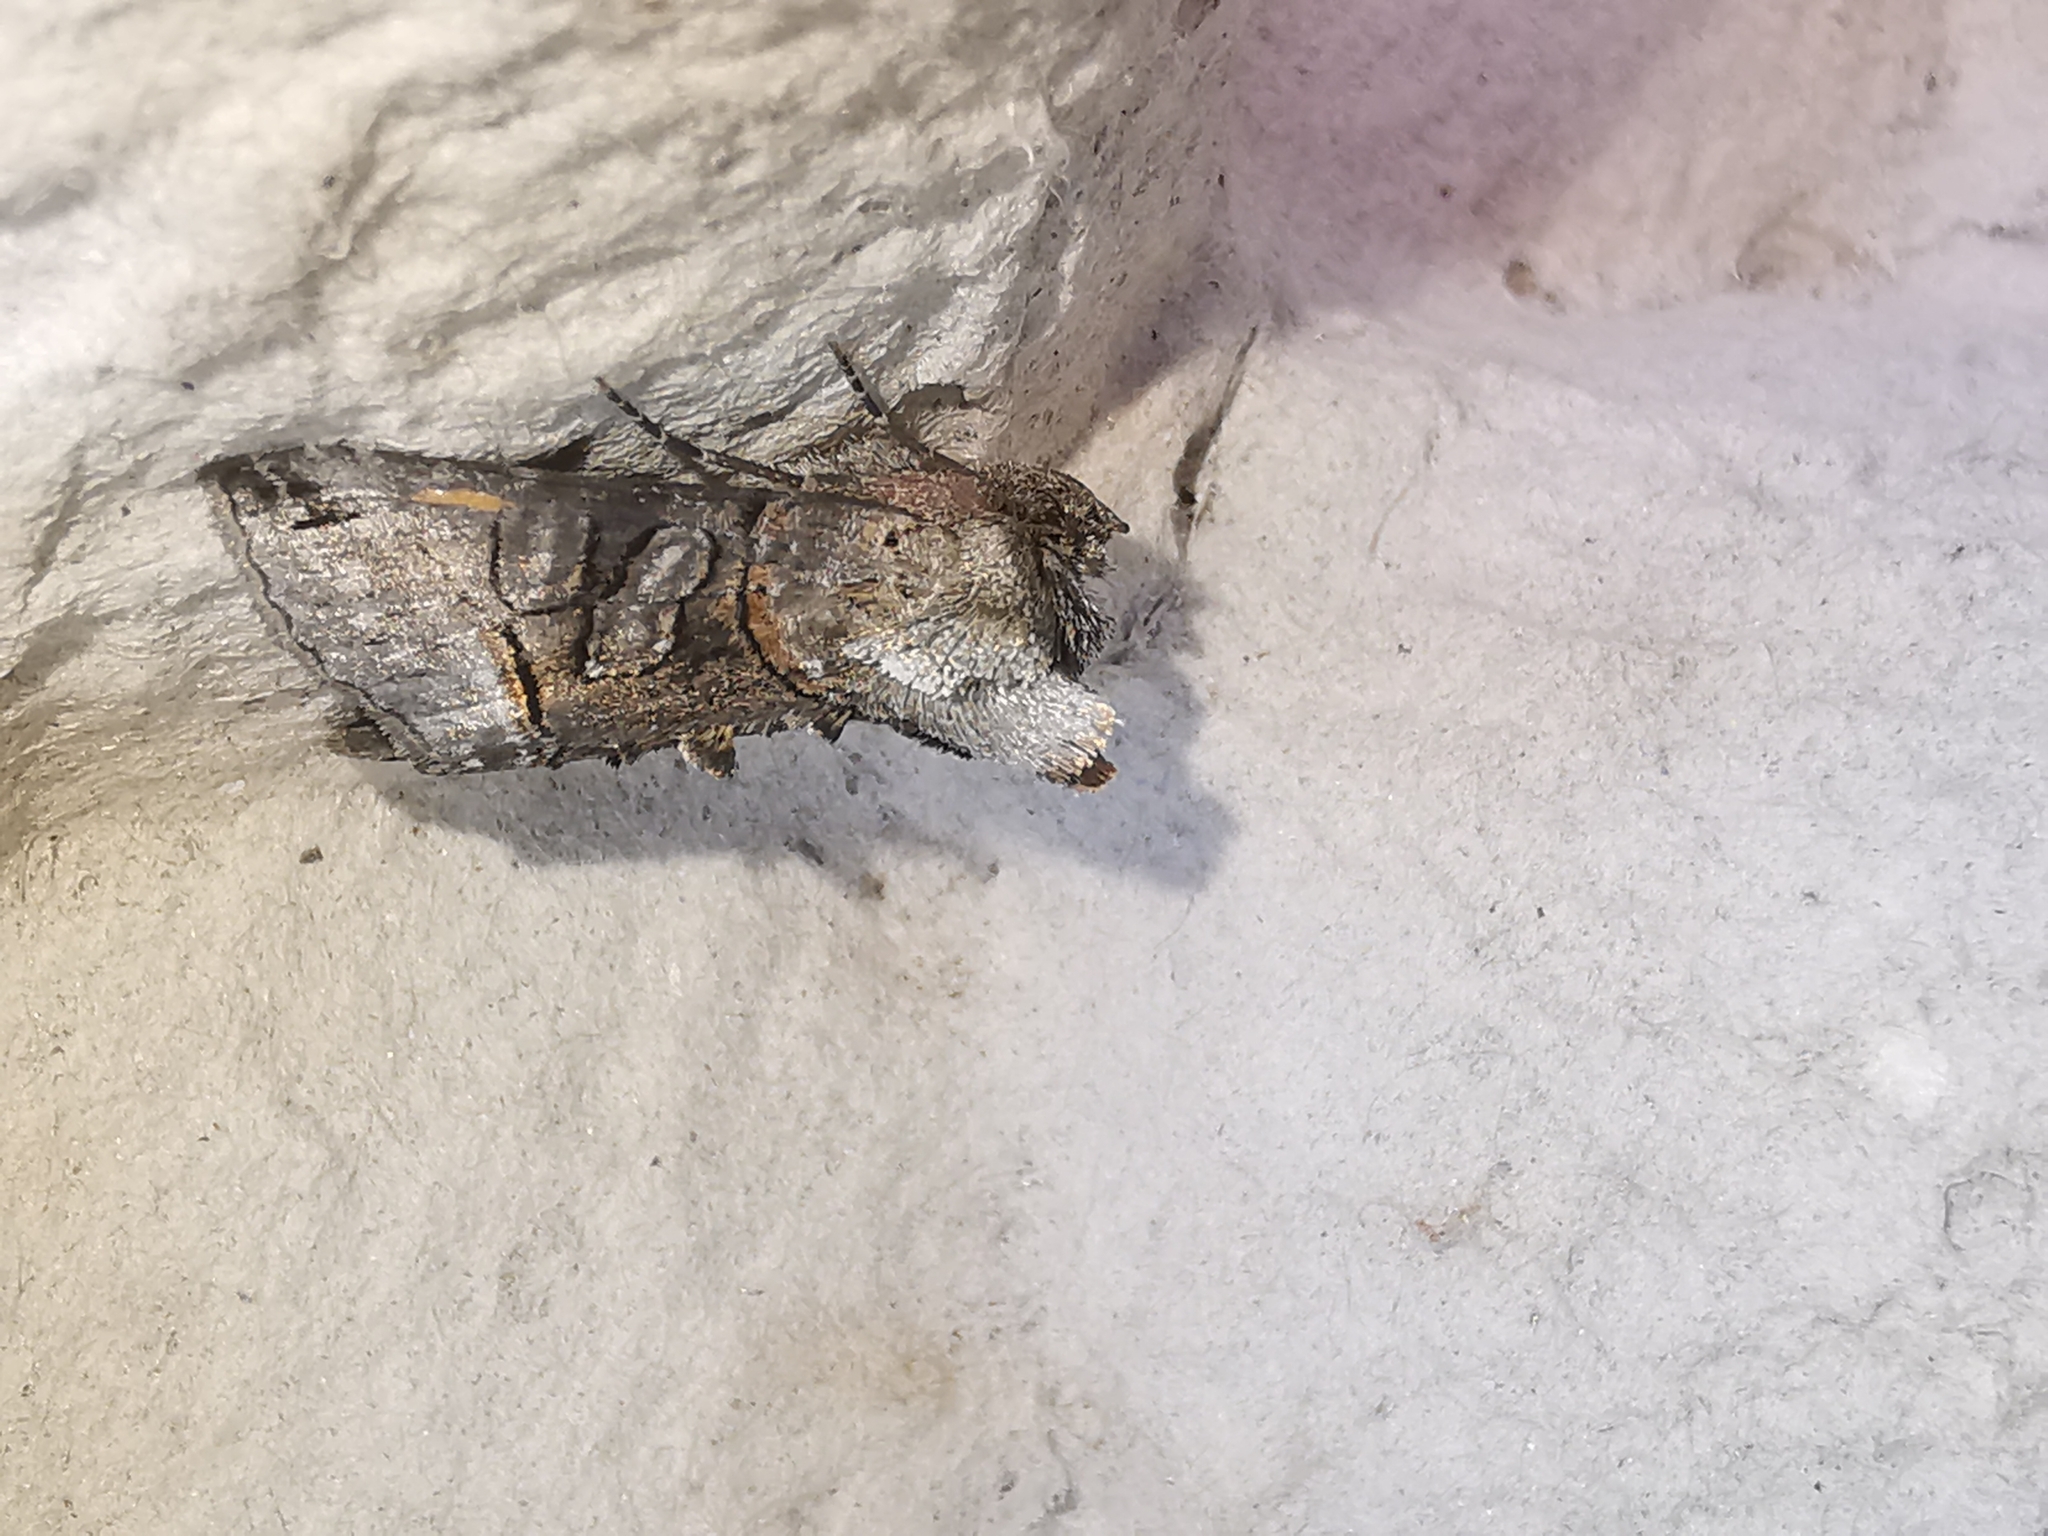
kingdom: Animalia
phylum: Arthropoda
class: Insecta
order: Lepidoptera
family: Noctuidae
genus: Abrostola
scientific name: Abrostola tripartita
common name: Spectacle
